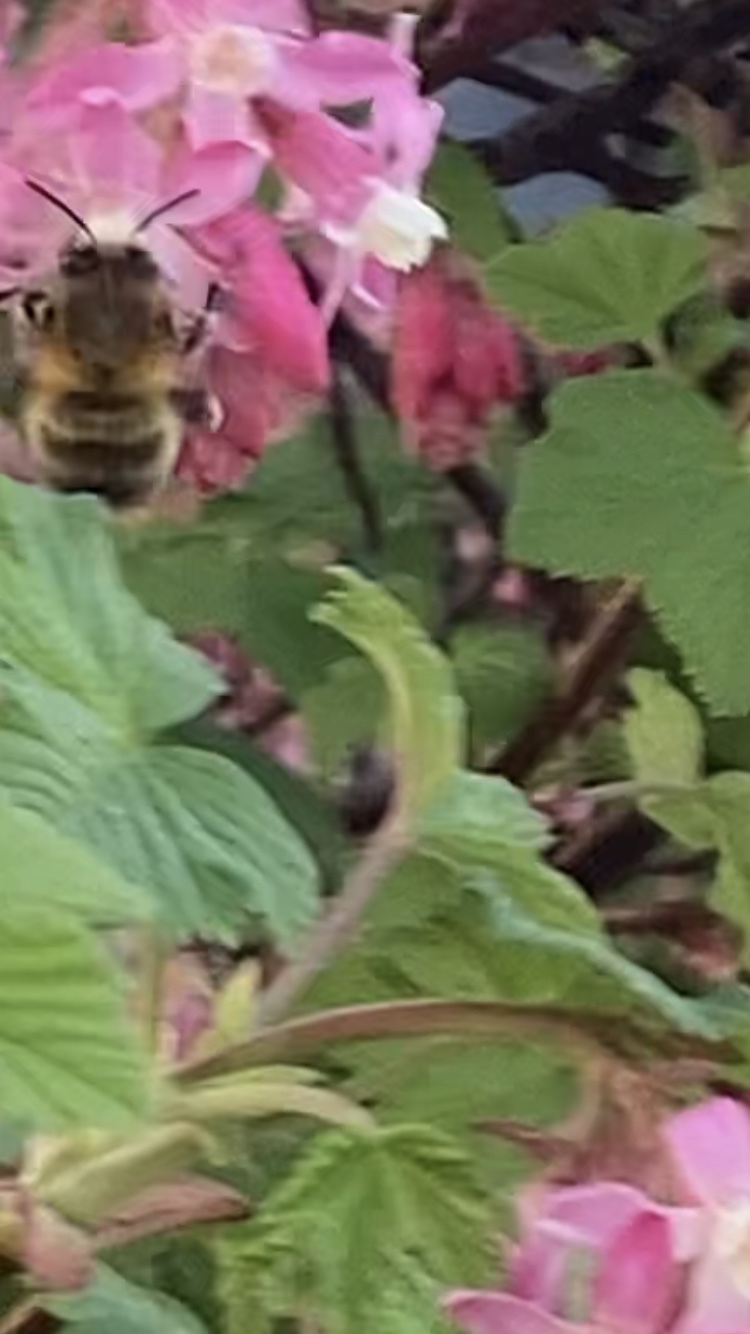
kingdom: Animalia
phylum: Arthropoda
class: Insecta
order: Hymenoptera
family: Apidae
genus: Anthophora
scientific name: Anthophora plumipes
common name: Hairy-footed flower bee
